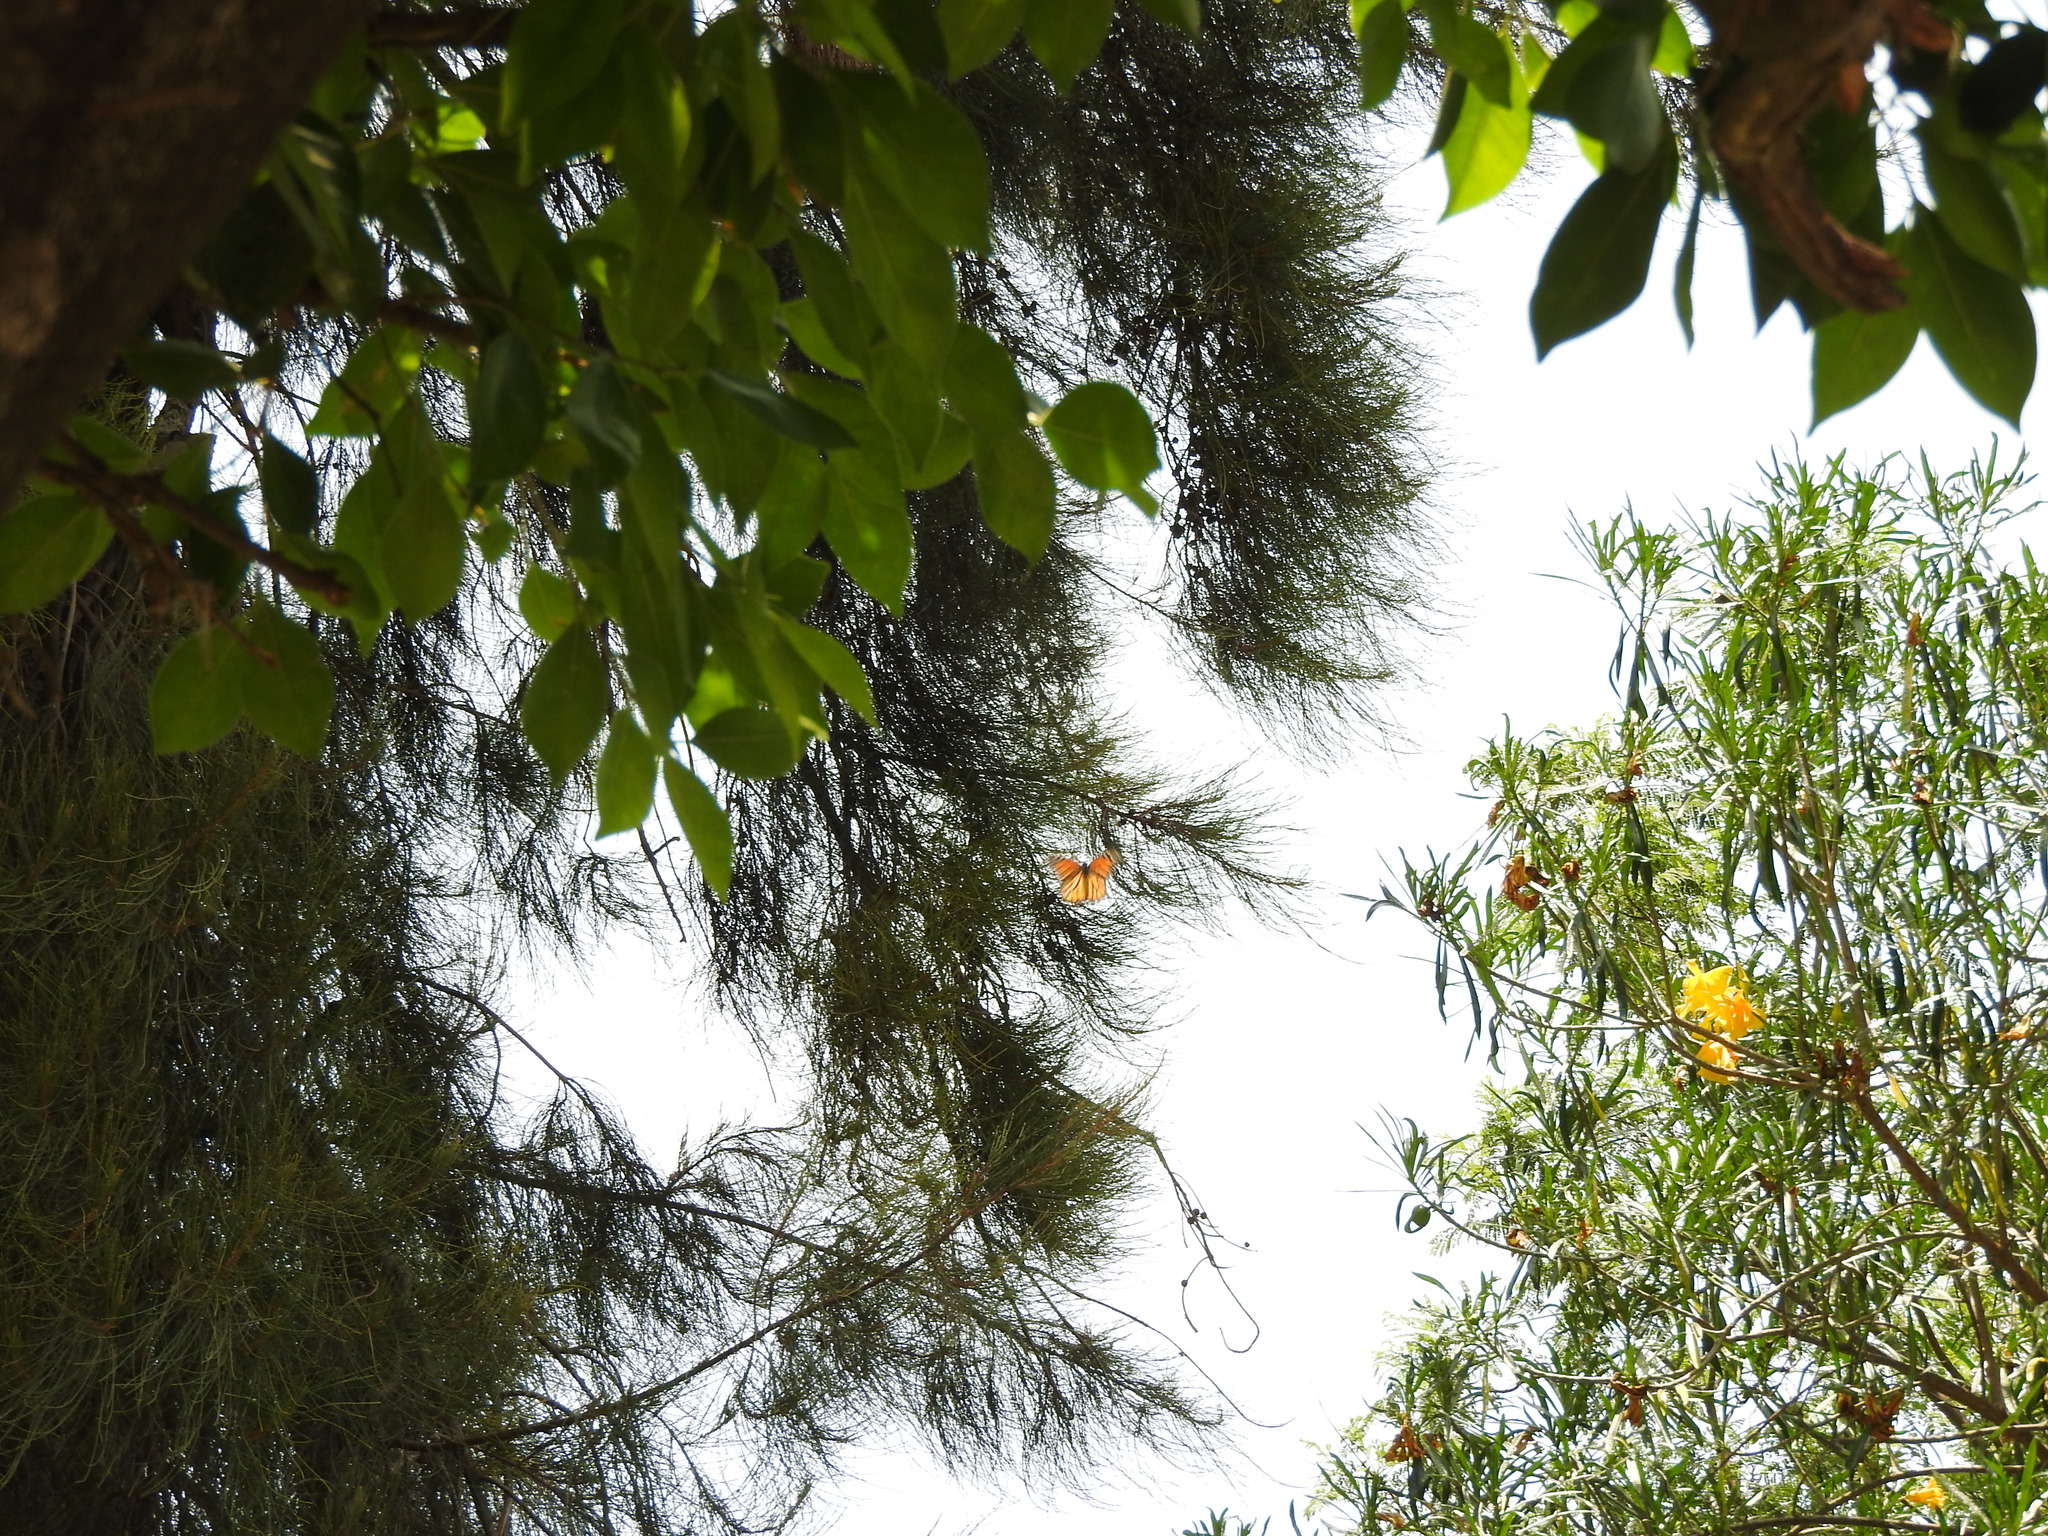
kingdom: Animalia
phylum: Arthropoda
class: Insecta
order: Lepidoptera
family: Nymphalidae
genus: Danaus
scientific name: Danaus plexippus
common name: Monarch
